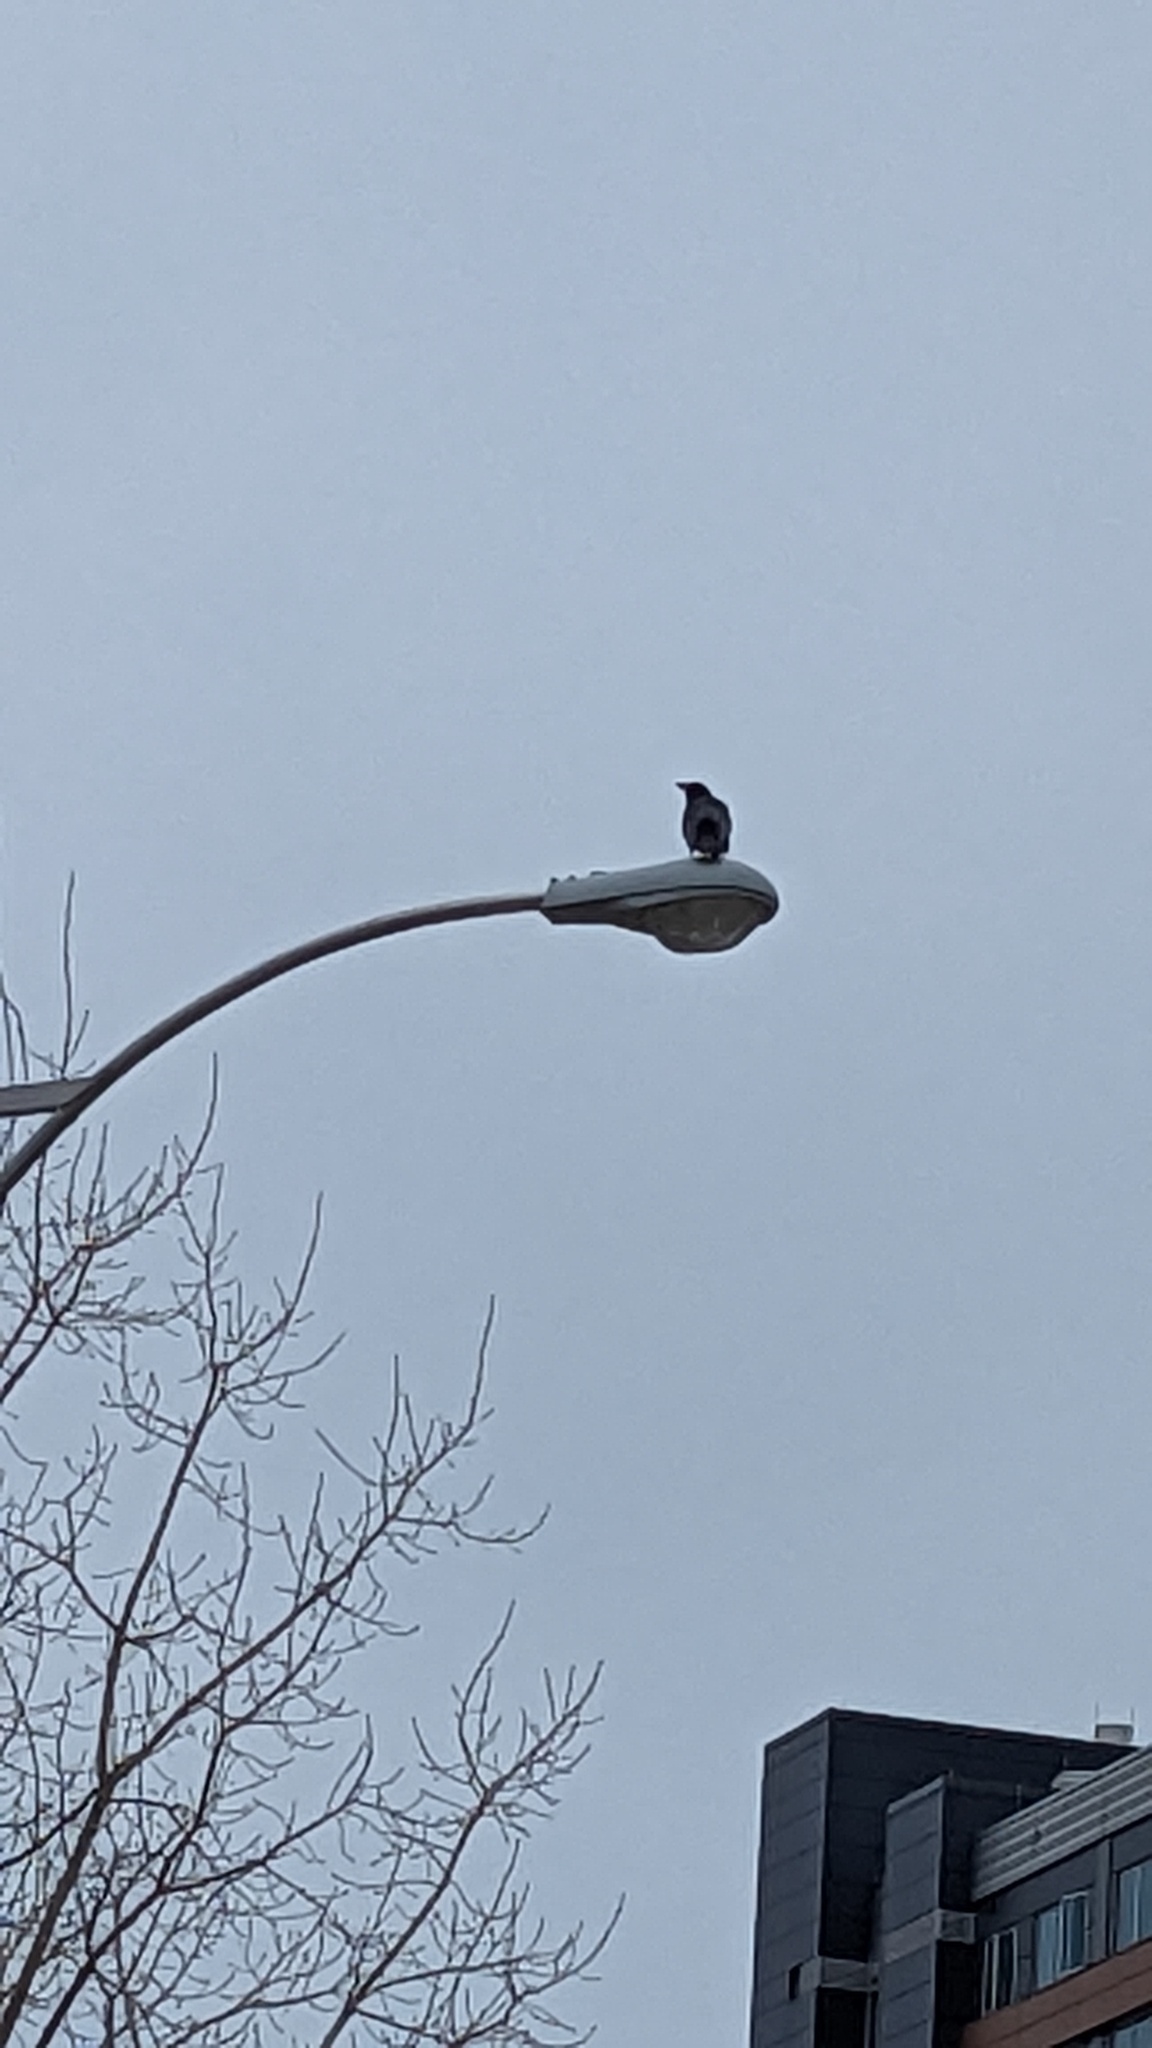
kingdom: Animalia
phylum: Chordata
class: Aves
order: Passeriformes
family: Corvidae
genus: Corvus
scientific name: Corvus brachyrhynchos
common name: American crow
